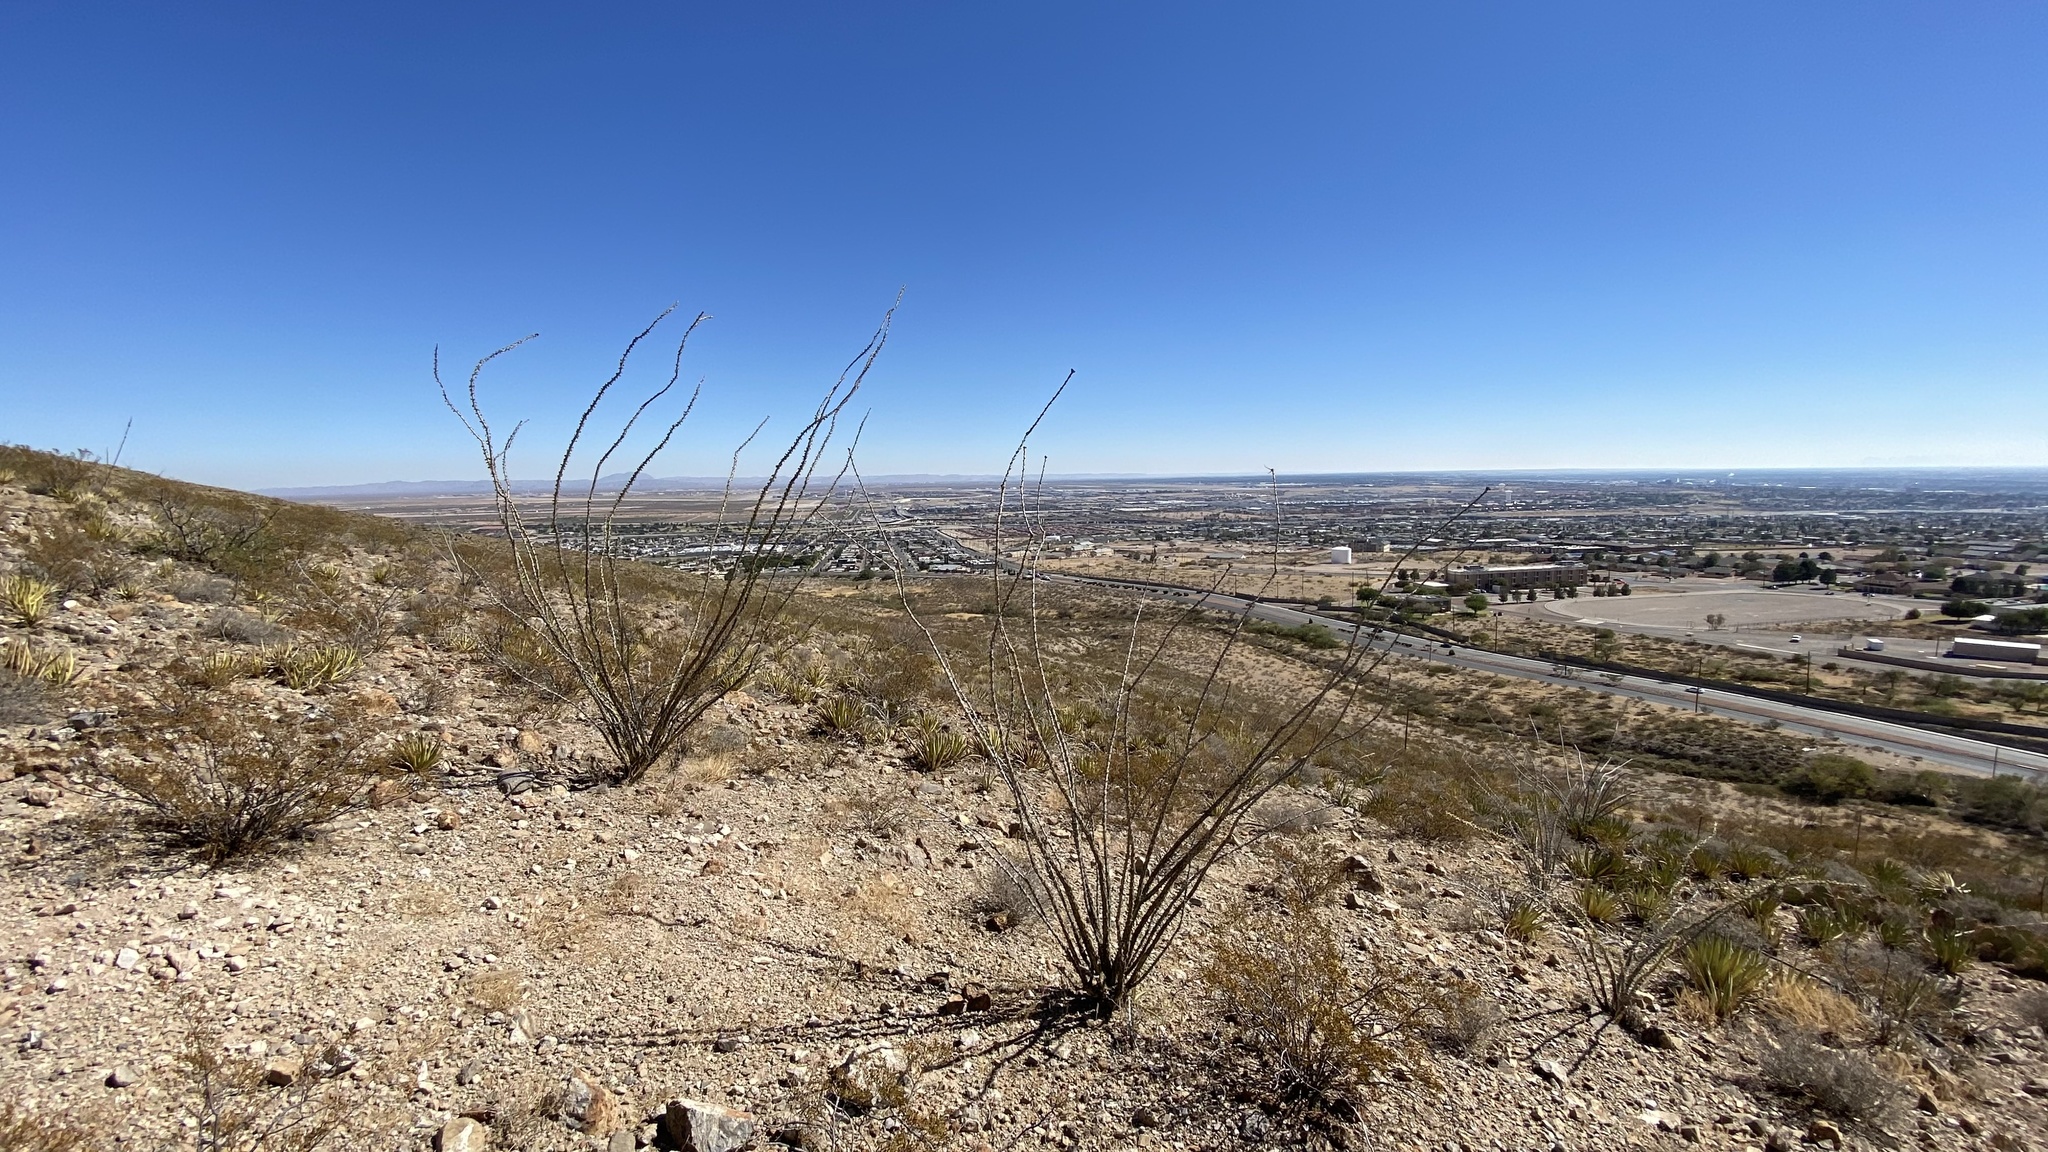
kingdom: Plantae
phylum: Tracheophyta
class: Magnoliopsida
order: Ericales
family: Fouquieriaceae
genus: Fouquieria
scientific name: Fouquieria splendens
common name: Vine-cactus
